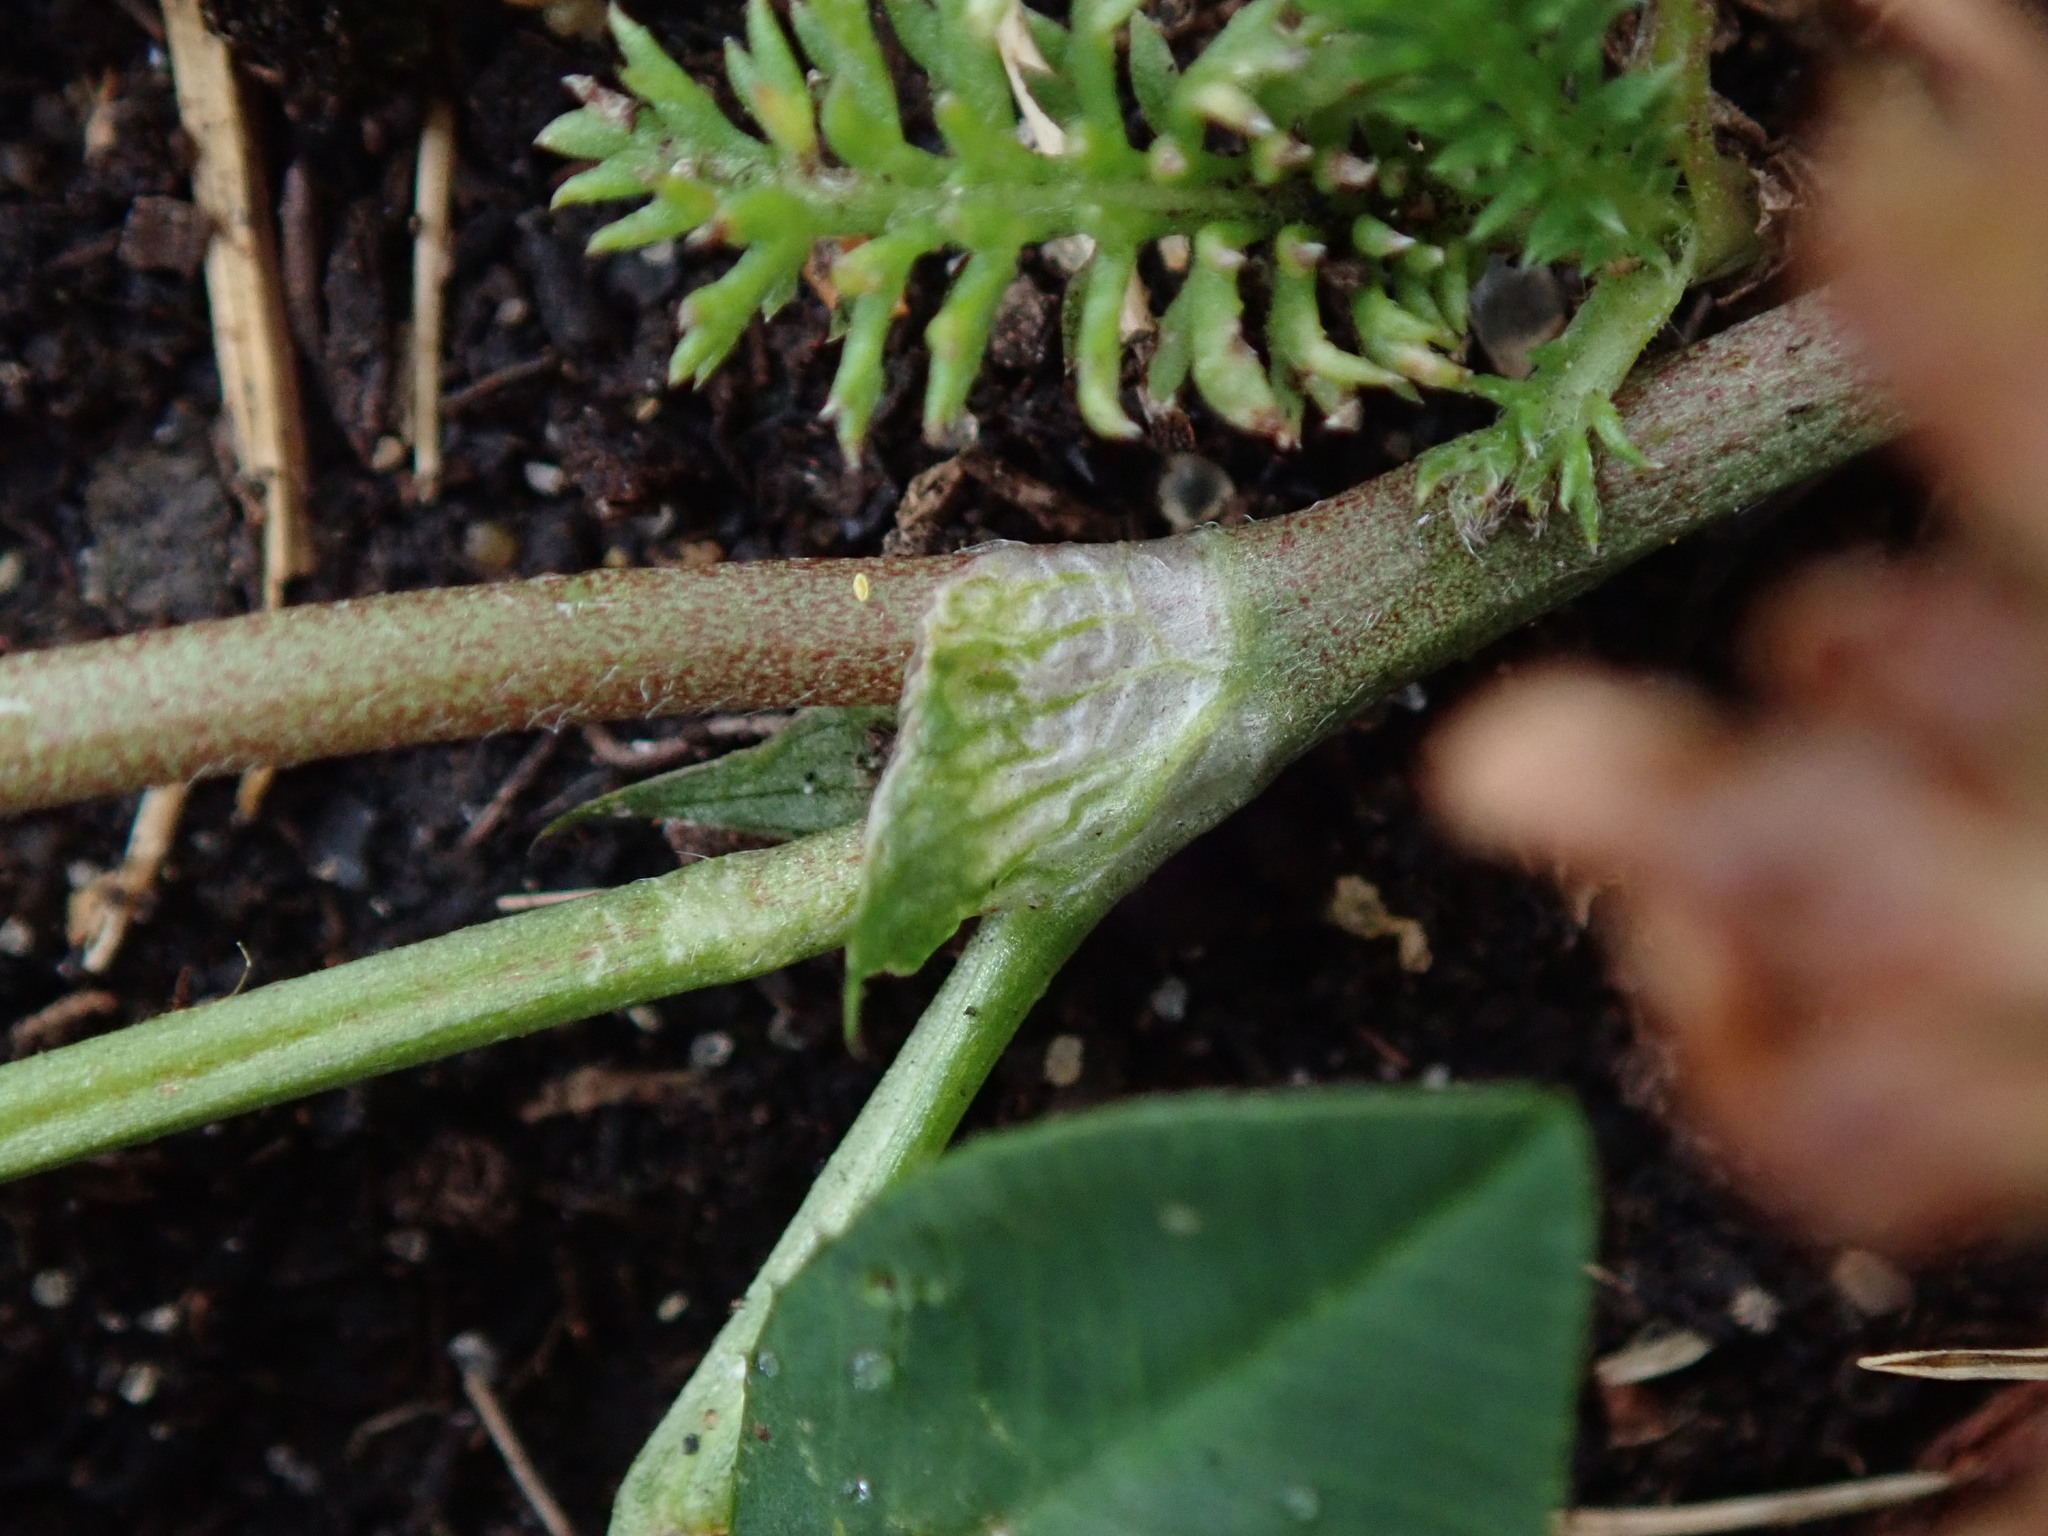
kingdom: Plantae
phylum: Tracheophyta
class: Magnoliopsida
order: Fabales
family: Fabaceae
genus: Trifolium
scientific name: Trifolium hybridum
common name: Alsike clover
